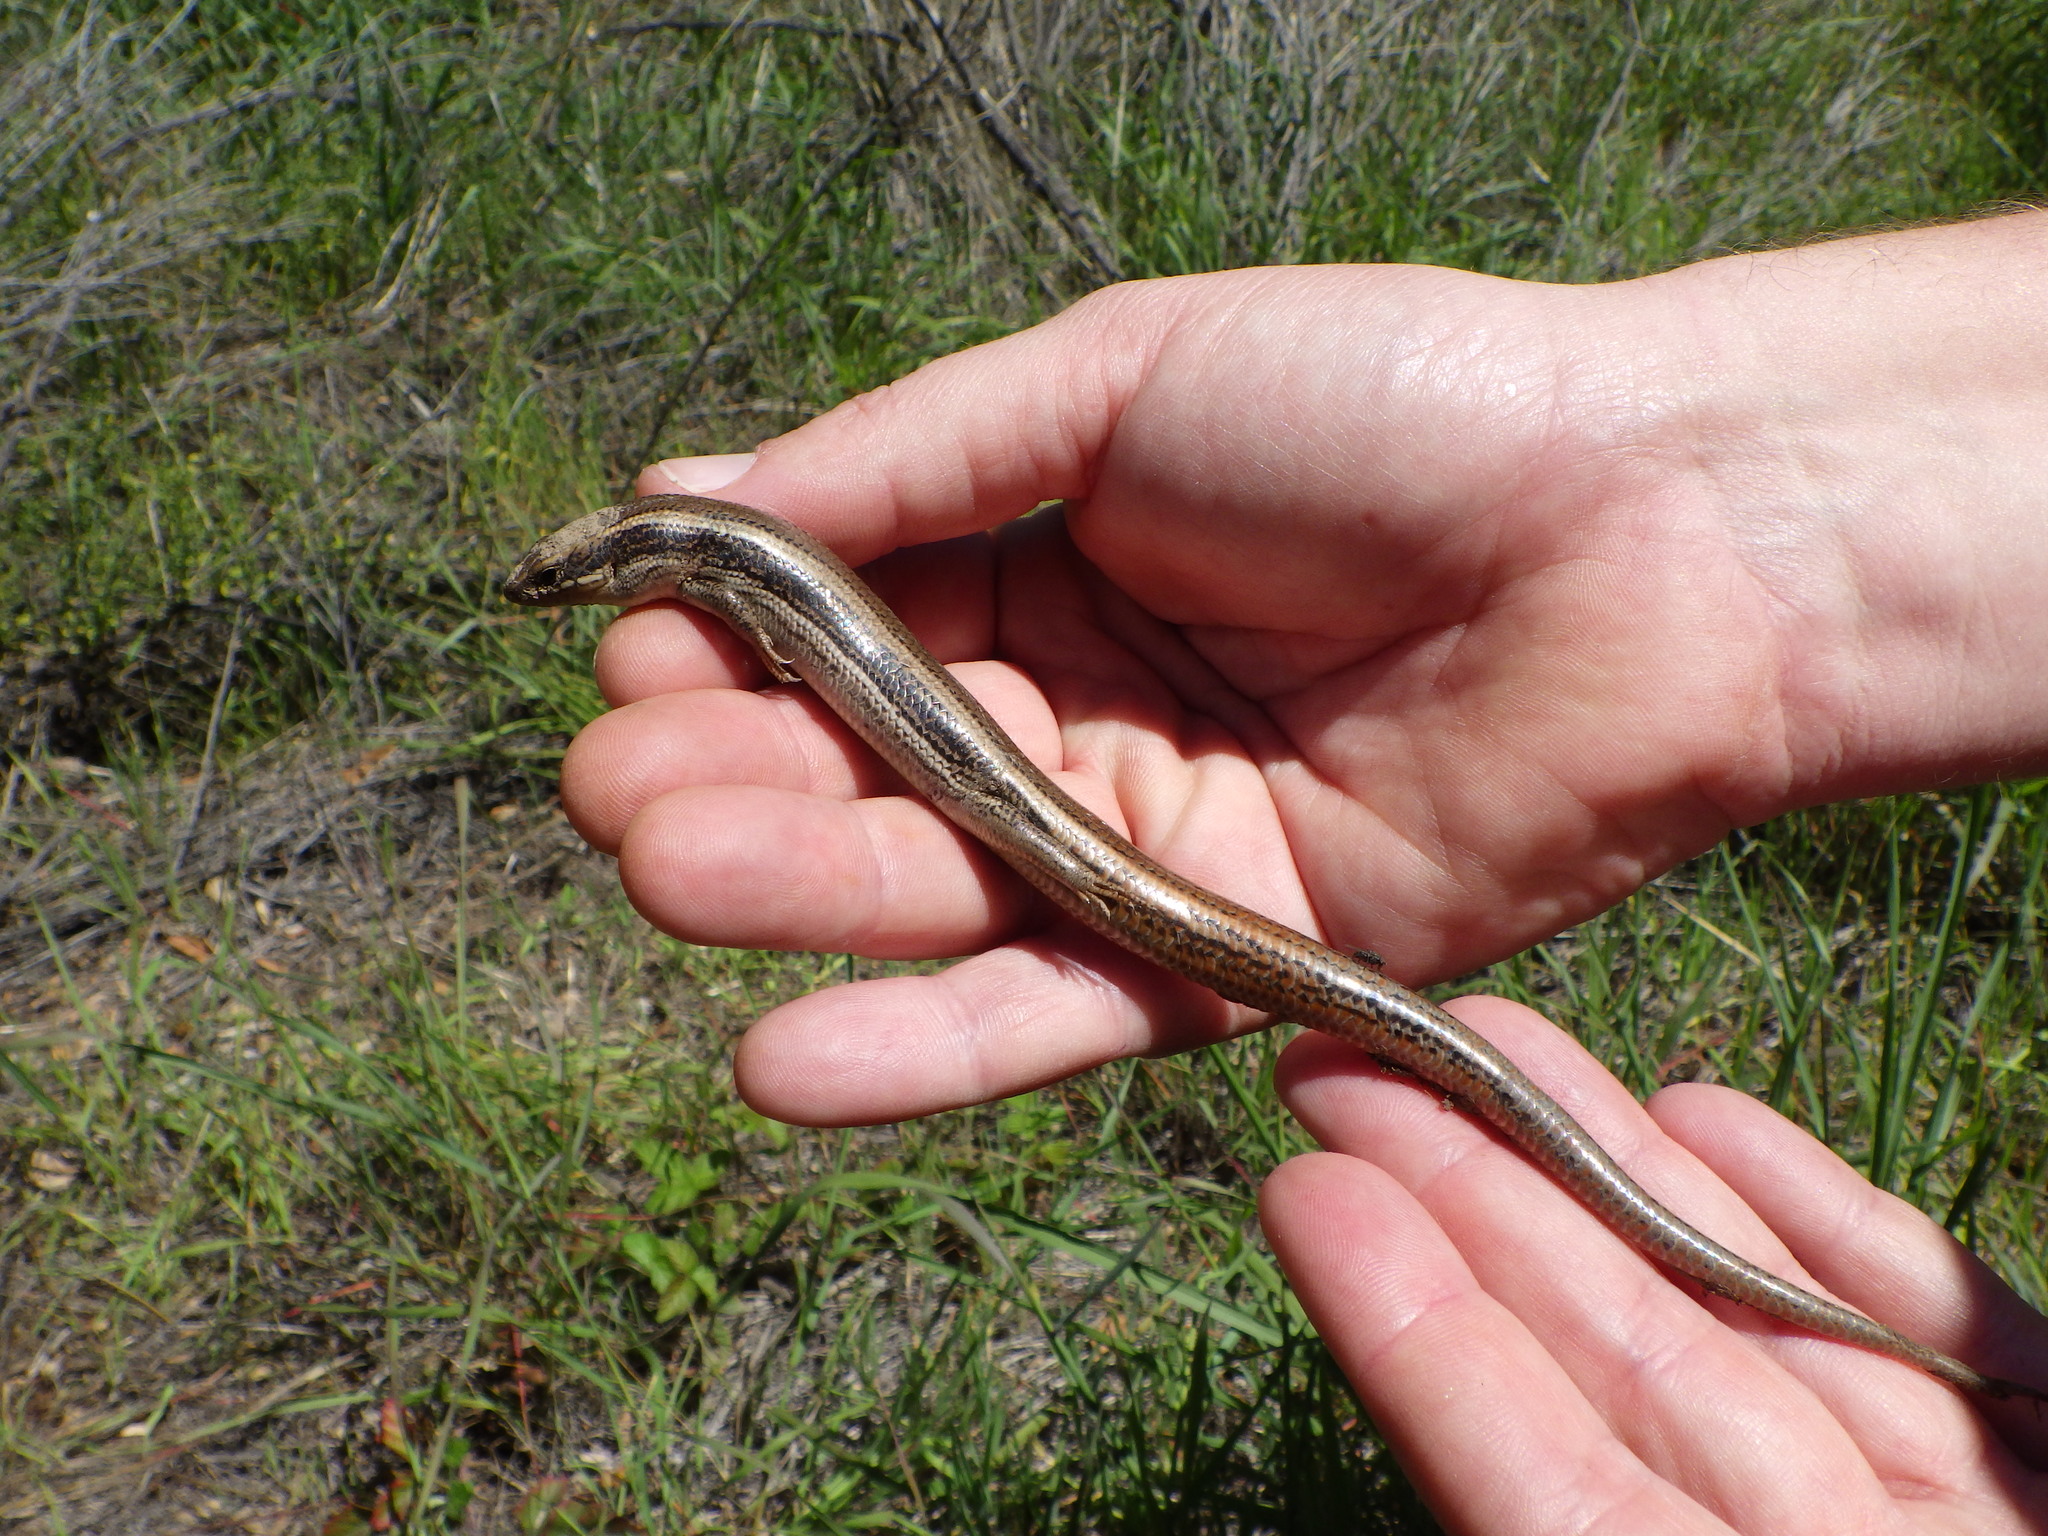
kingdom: Animalia
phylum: Chordata
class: Squamata
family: Scincidae
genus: Plestiodon
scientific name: Plestiodon skiltonianus
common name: Coronado island skink [interparietalis]
